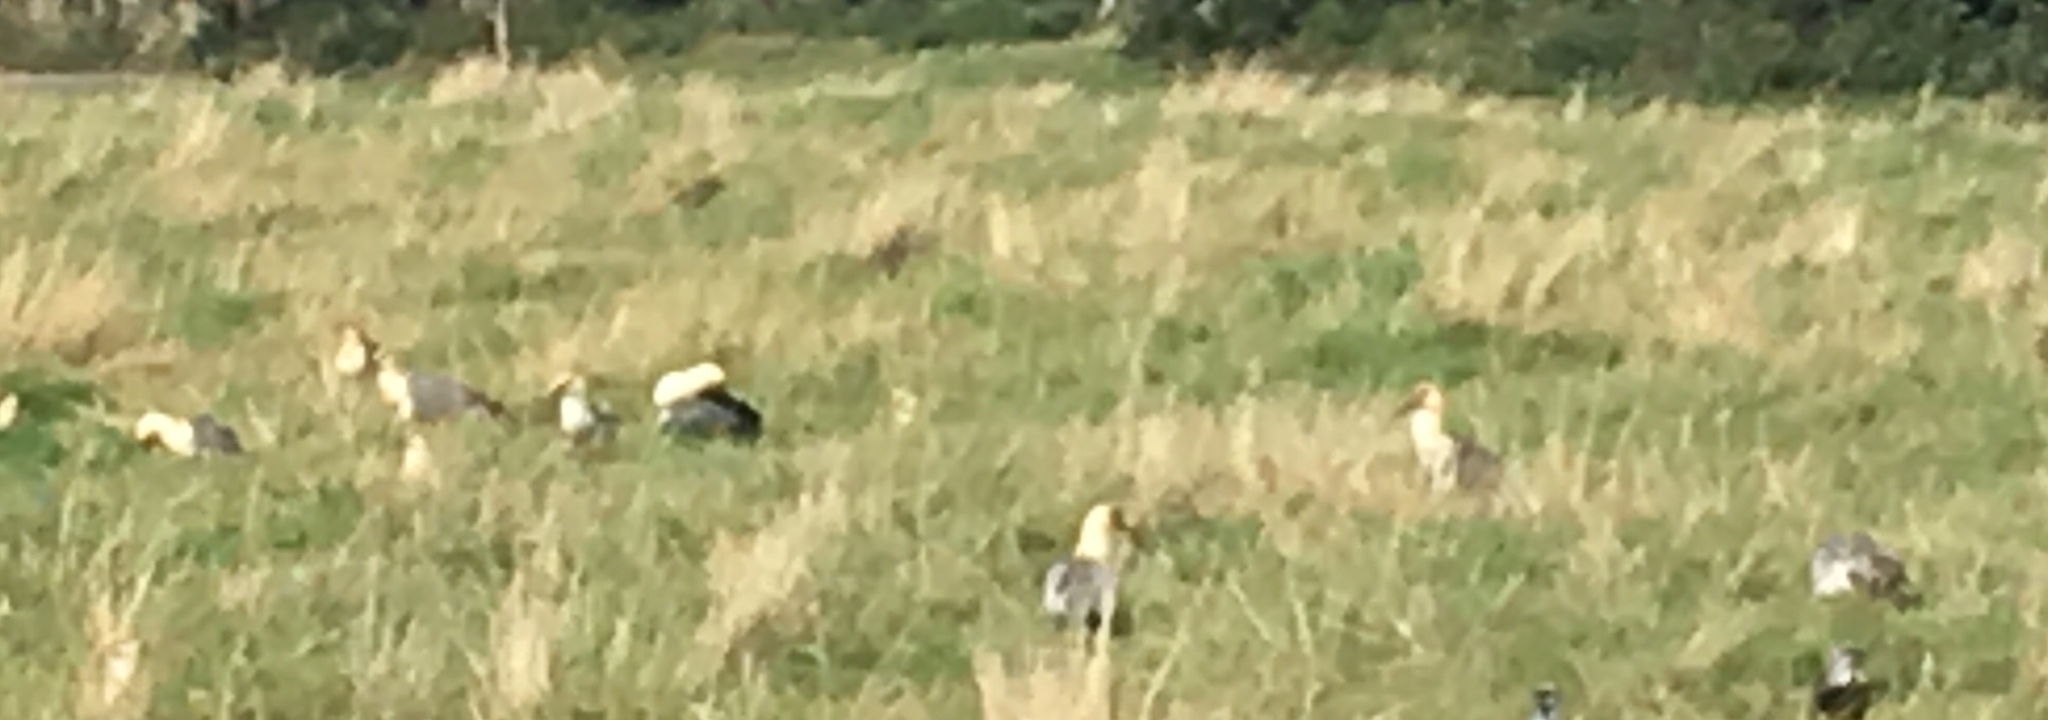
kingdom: Animalia
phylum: Chordata
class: Aves
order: Pelecaniformes
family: Threskiornithidae
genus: Theristicus
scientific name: Theristicus melanopis
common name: Black-faced ibis
